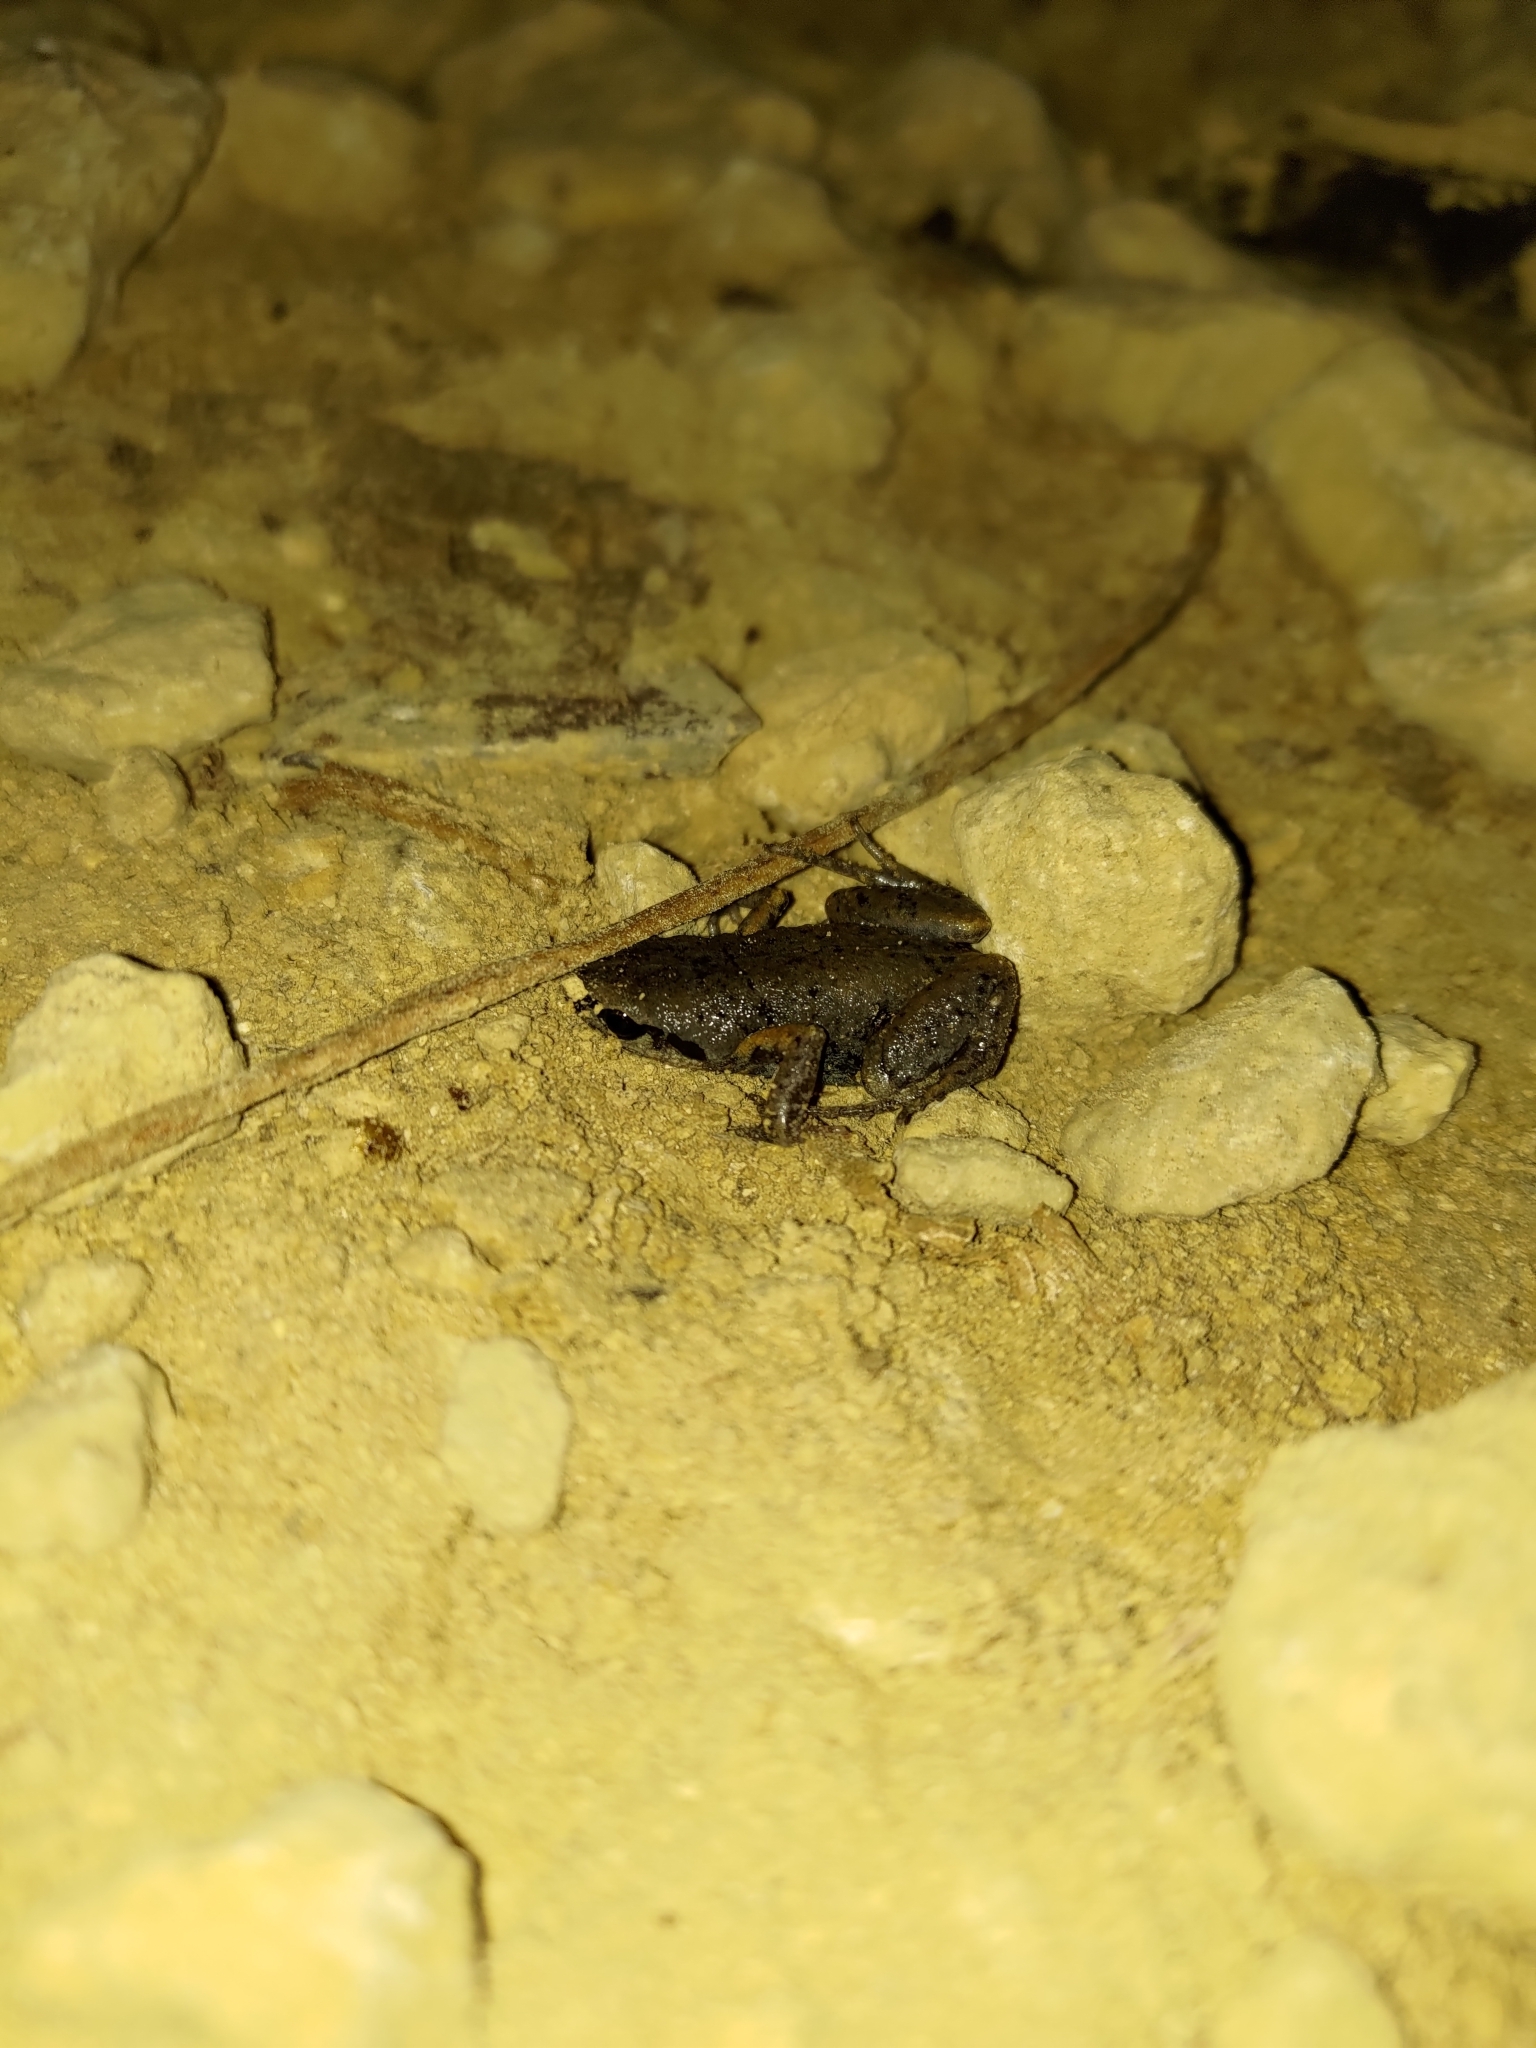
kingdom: Animalia
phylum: Chordata
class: Amphibia
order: Anura
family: Microhylidae
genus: Micryletta
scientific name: Micryletta steinegeri
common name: Stejneger's paddy frog
